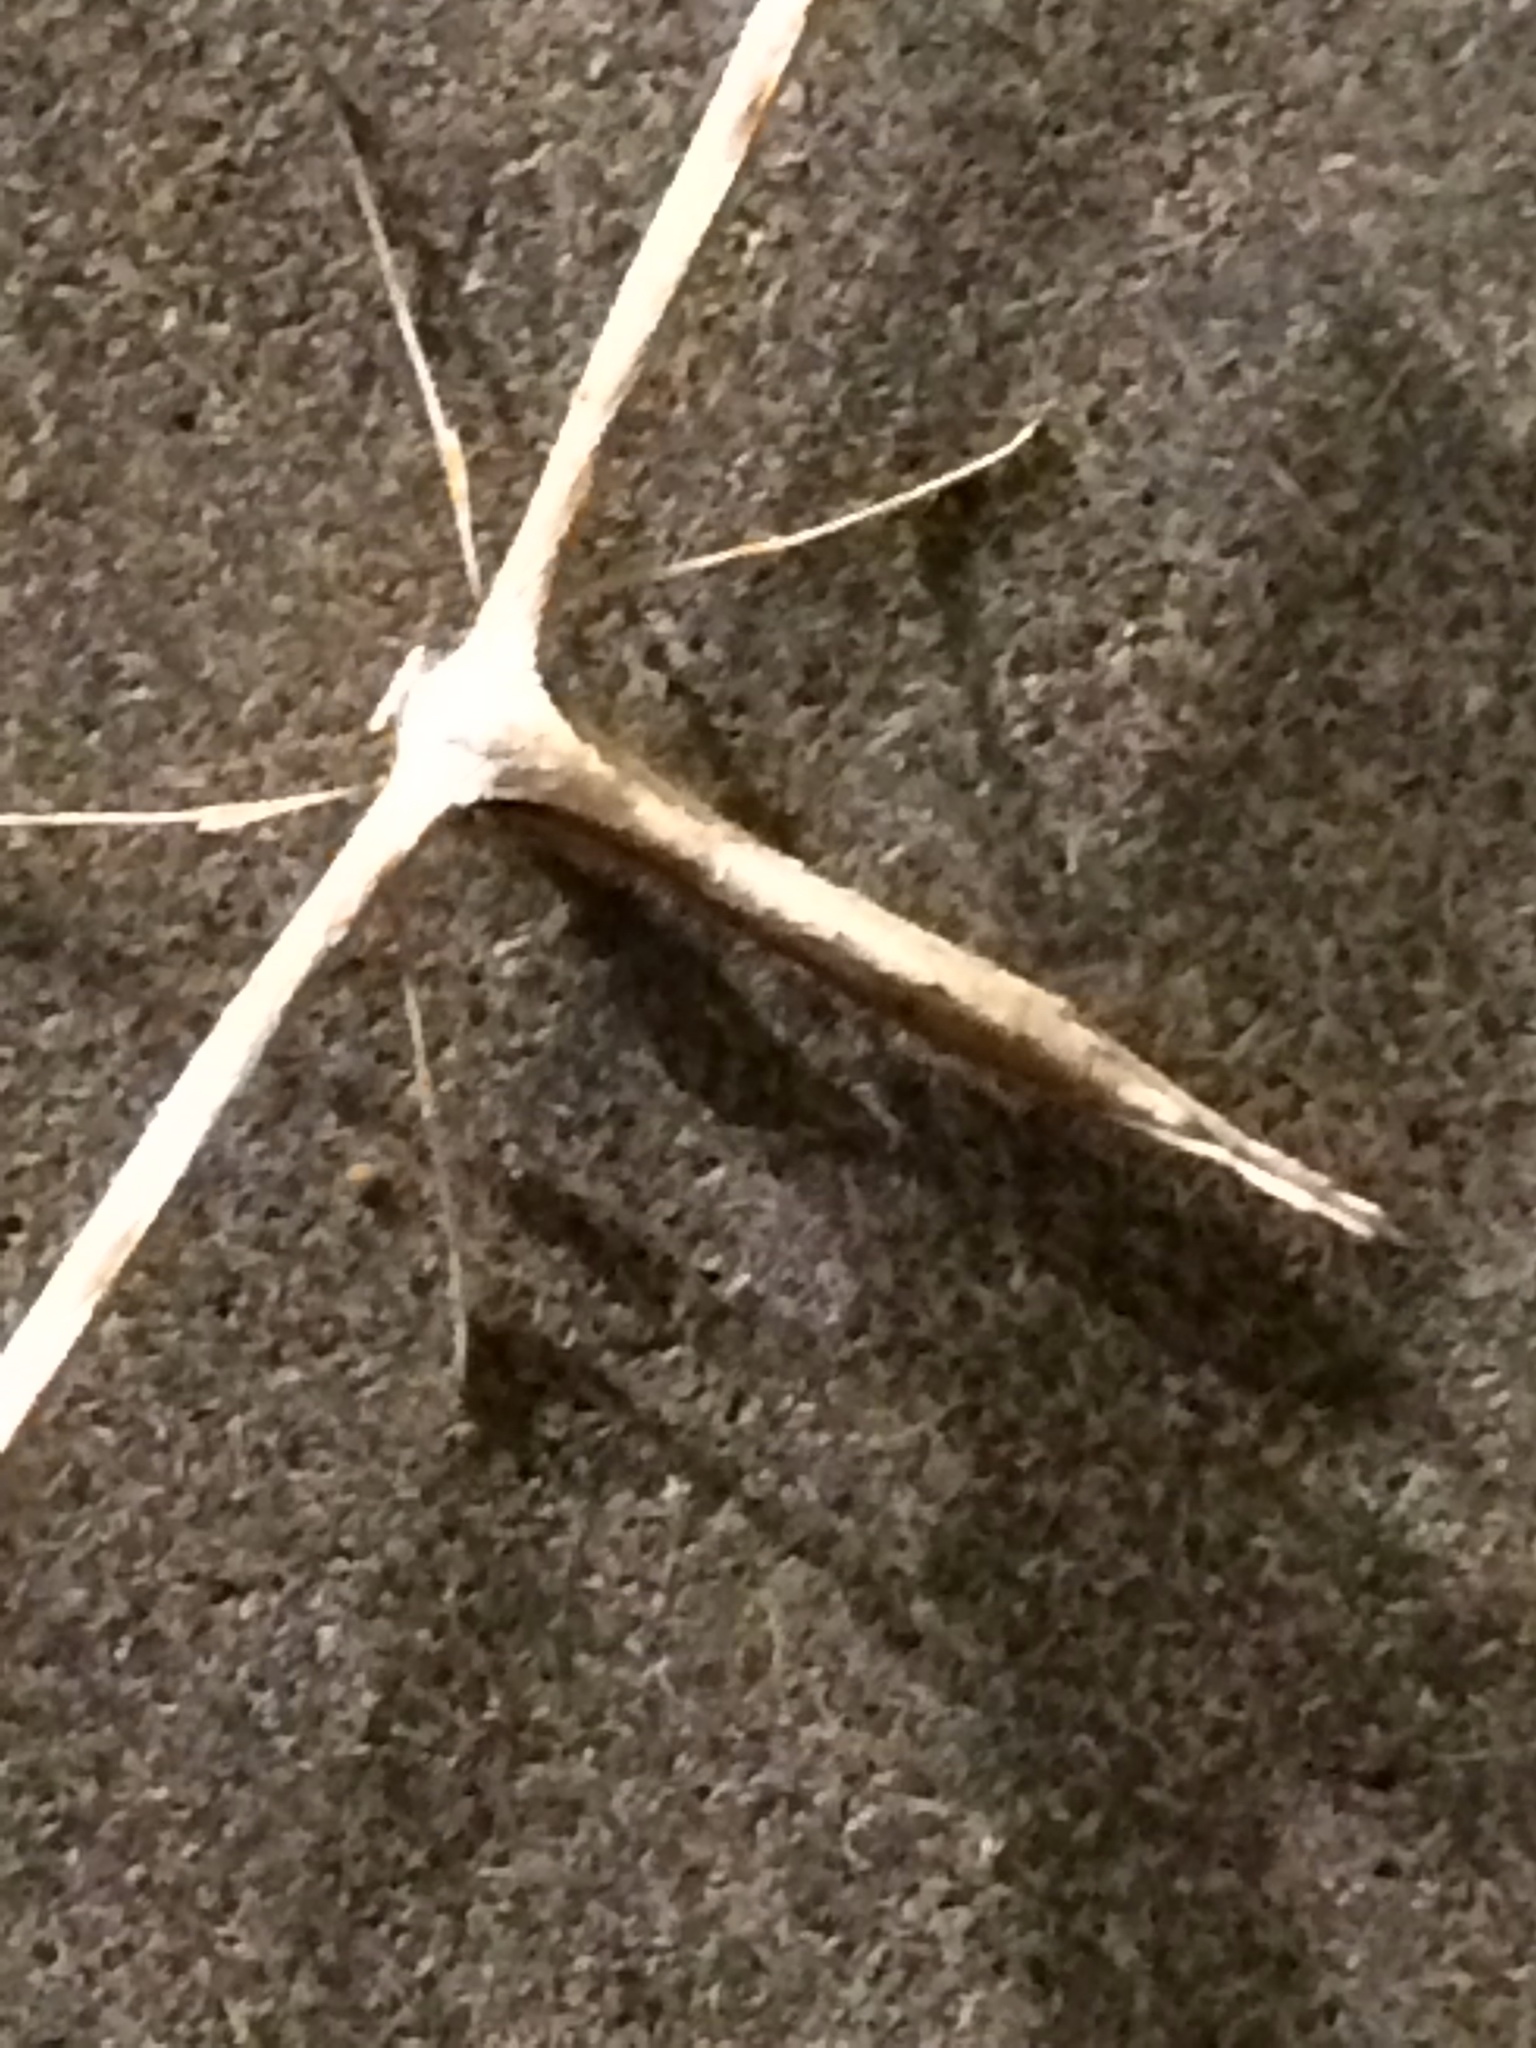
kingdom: Animalia
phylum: Arthropoda
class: Insecta
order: Lepidoptera
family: Pterophoridae
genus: Emmelina
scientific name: Emmelina monodactyla
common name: Common plume
